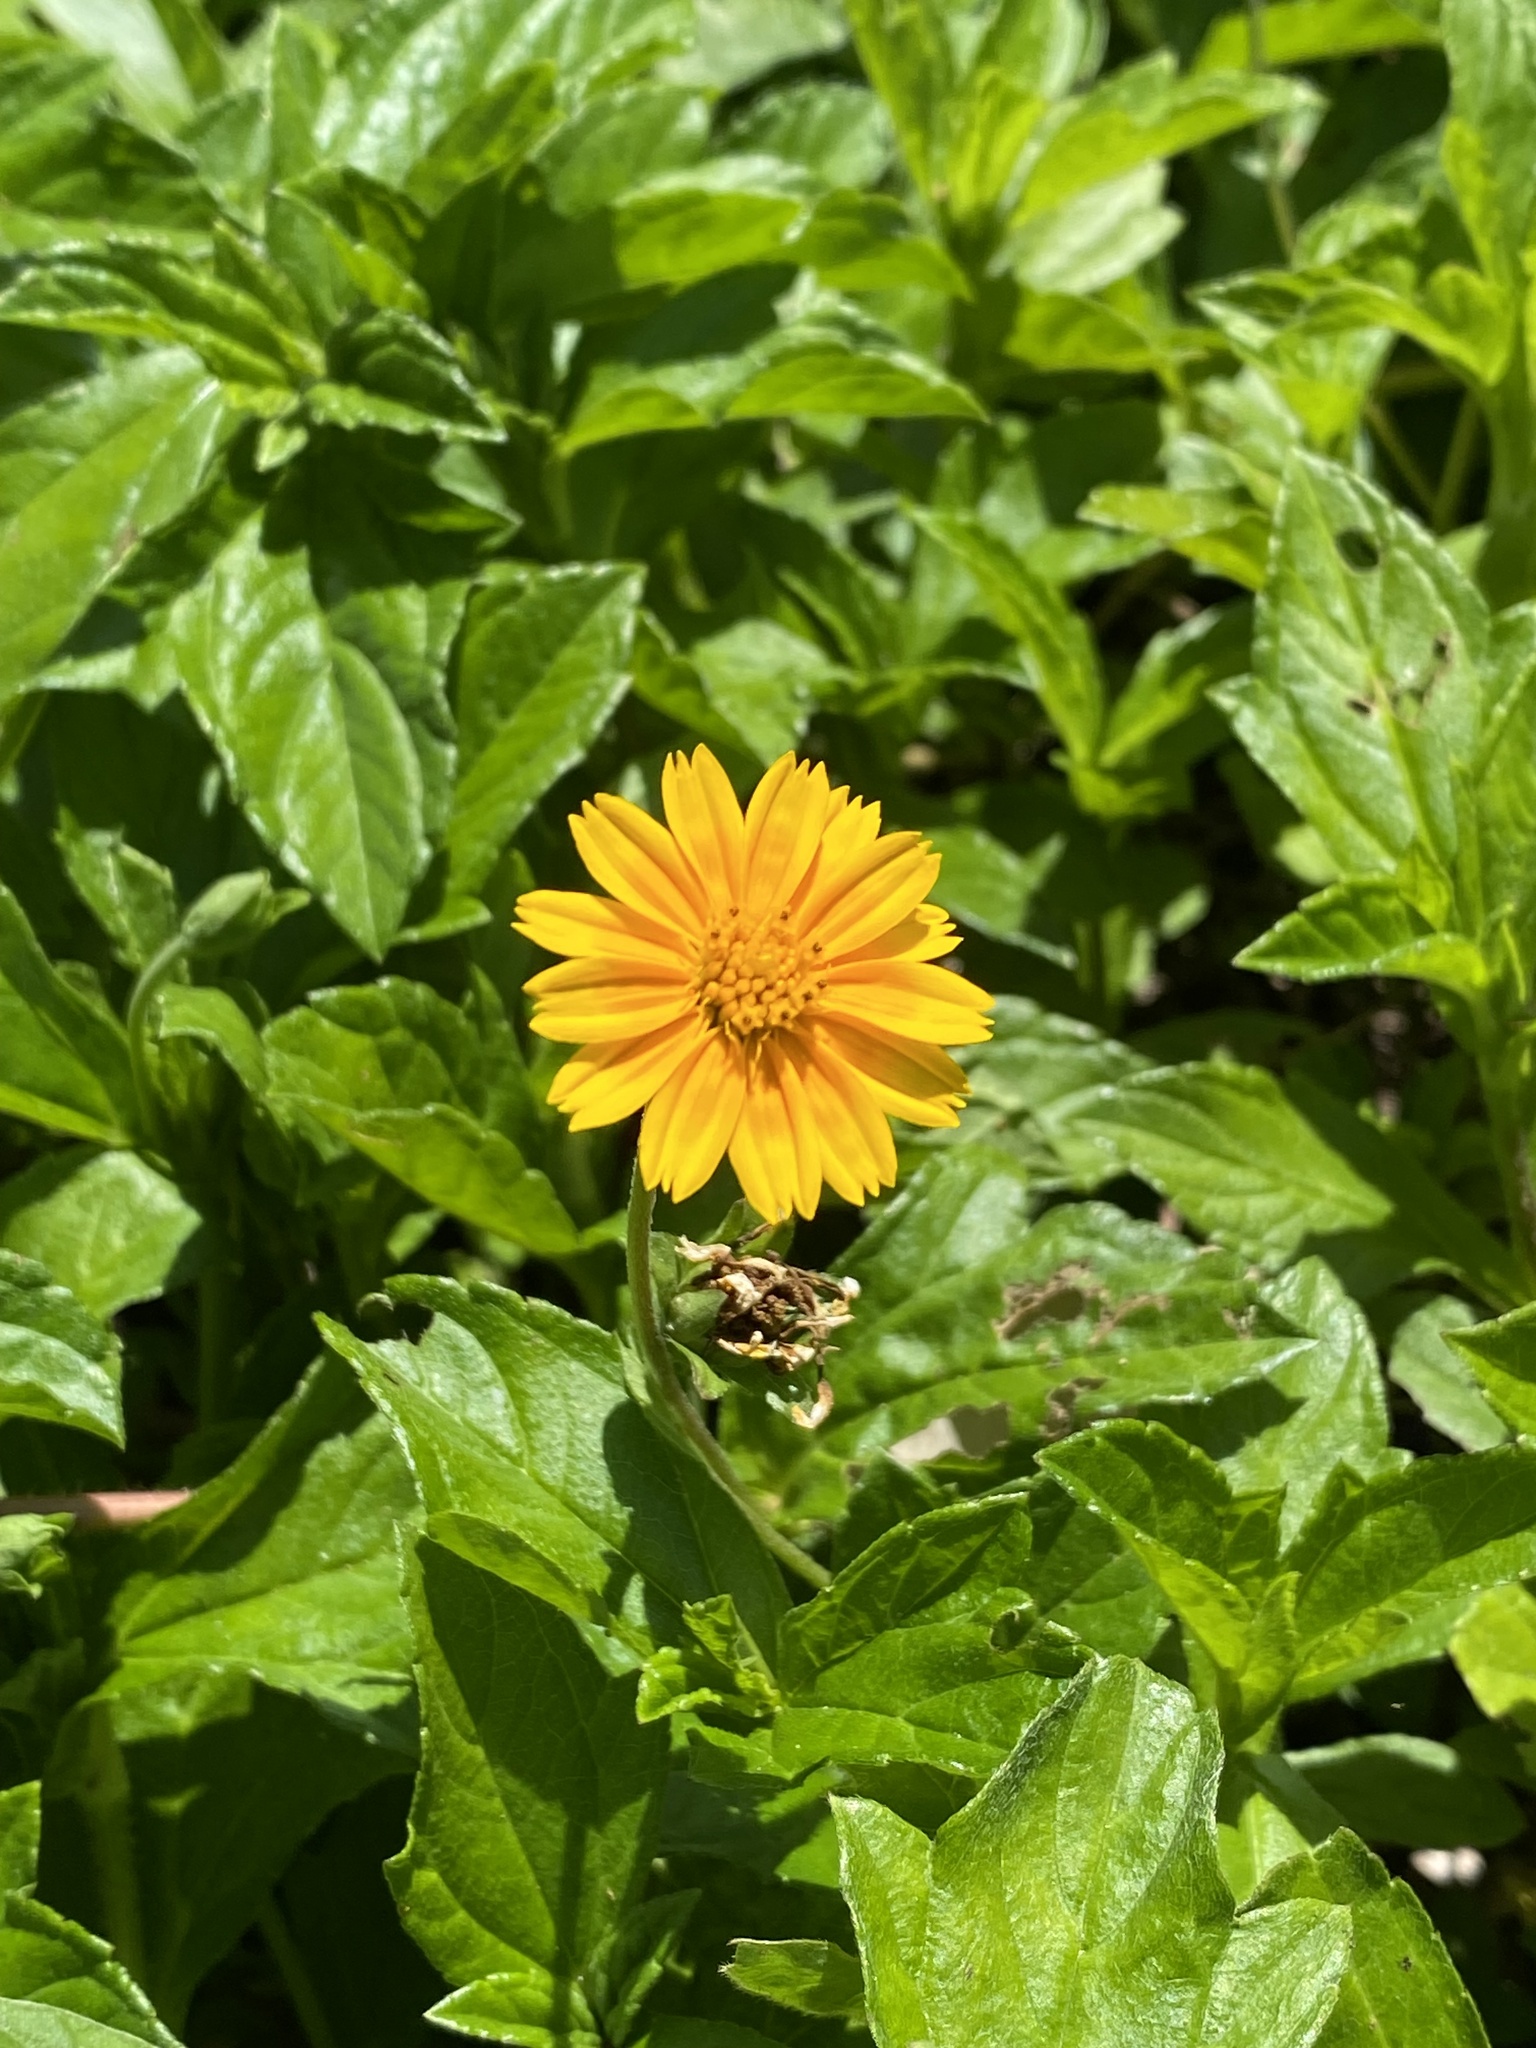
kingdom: Plantae
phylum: Tracheophyta
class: Magnoliopsida
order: Asterales
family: Asteraceae
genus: Sphagneticola
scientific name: Sphagneticola trilobata
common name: Bay biscayne creeping-oxeye
